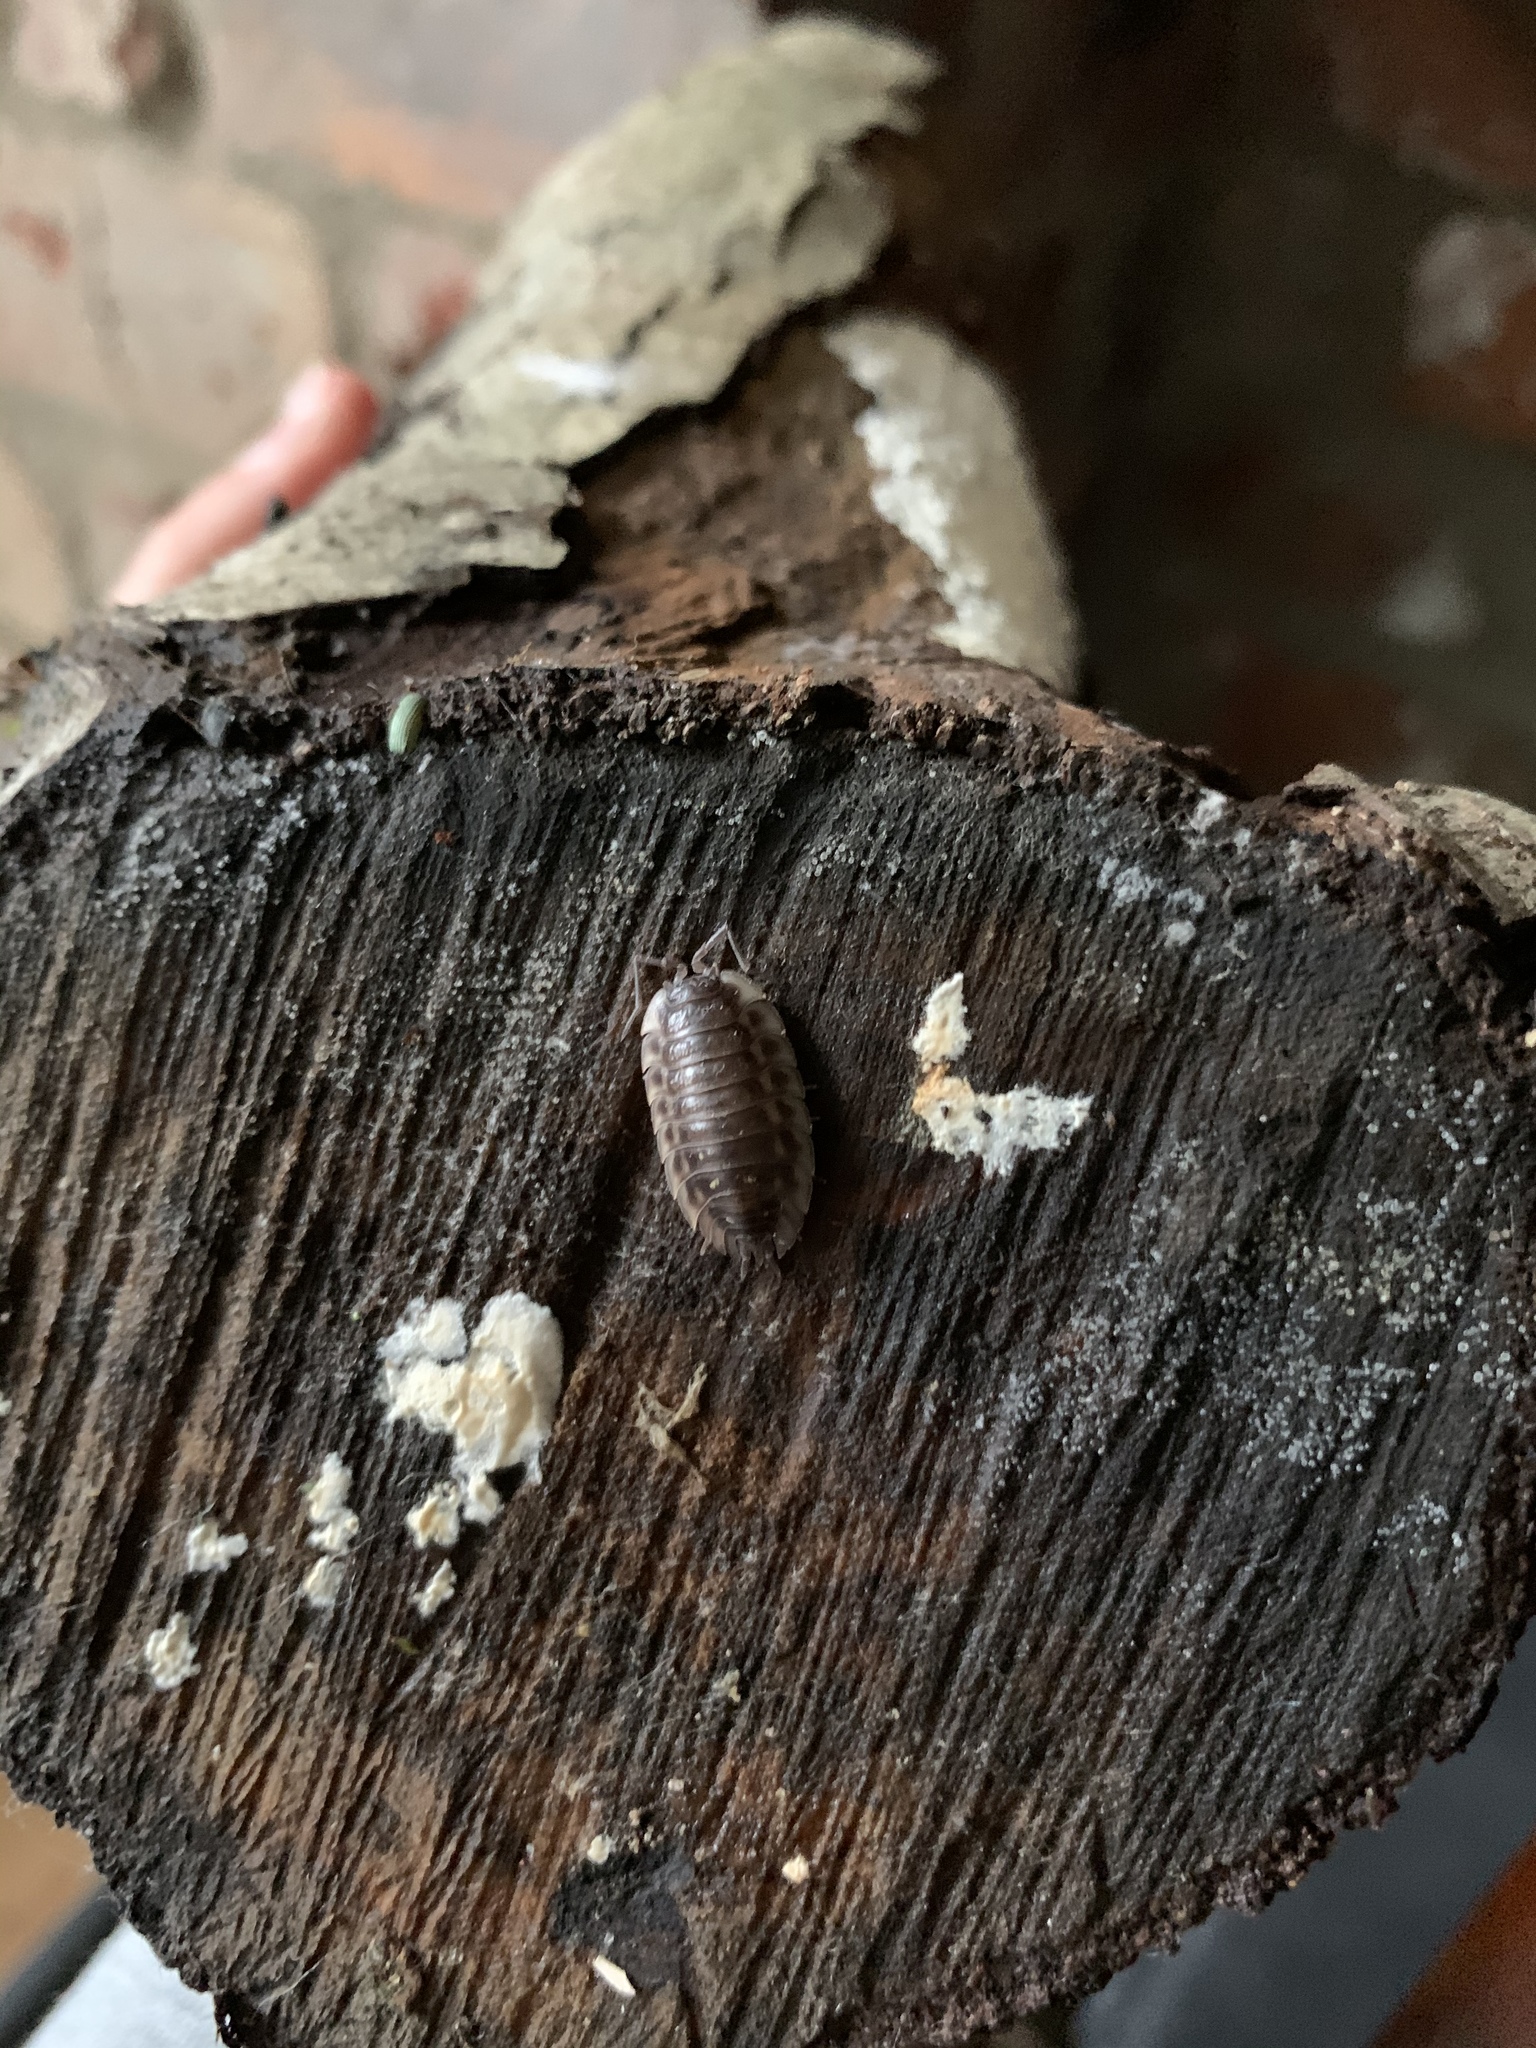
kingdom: Animalia
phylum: Arthropoda
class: Malacostraca
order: Isopoda
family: Oniscidae
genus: Oniscus
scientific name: Oniscus asellus
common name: Common shiny woodlouse
